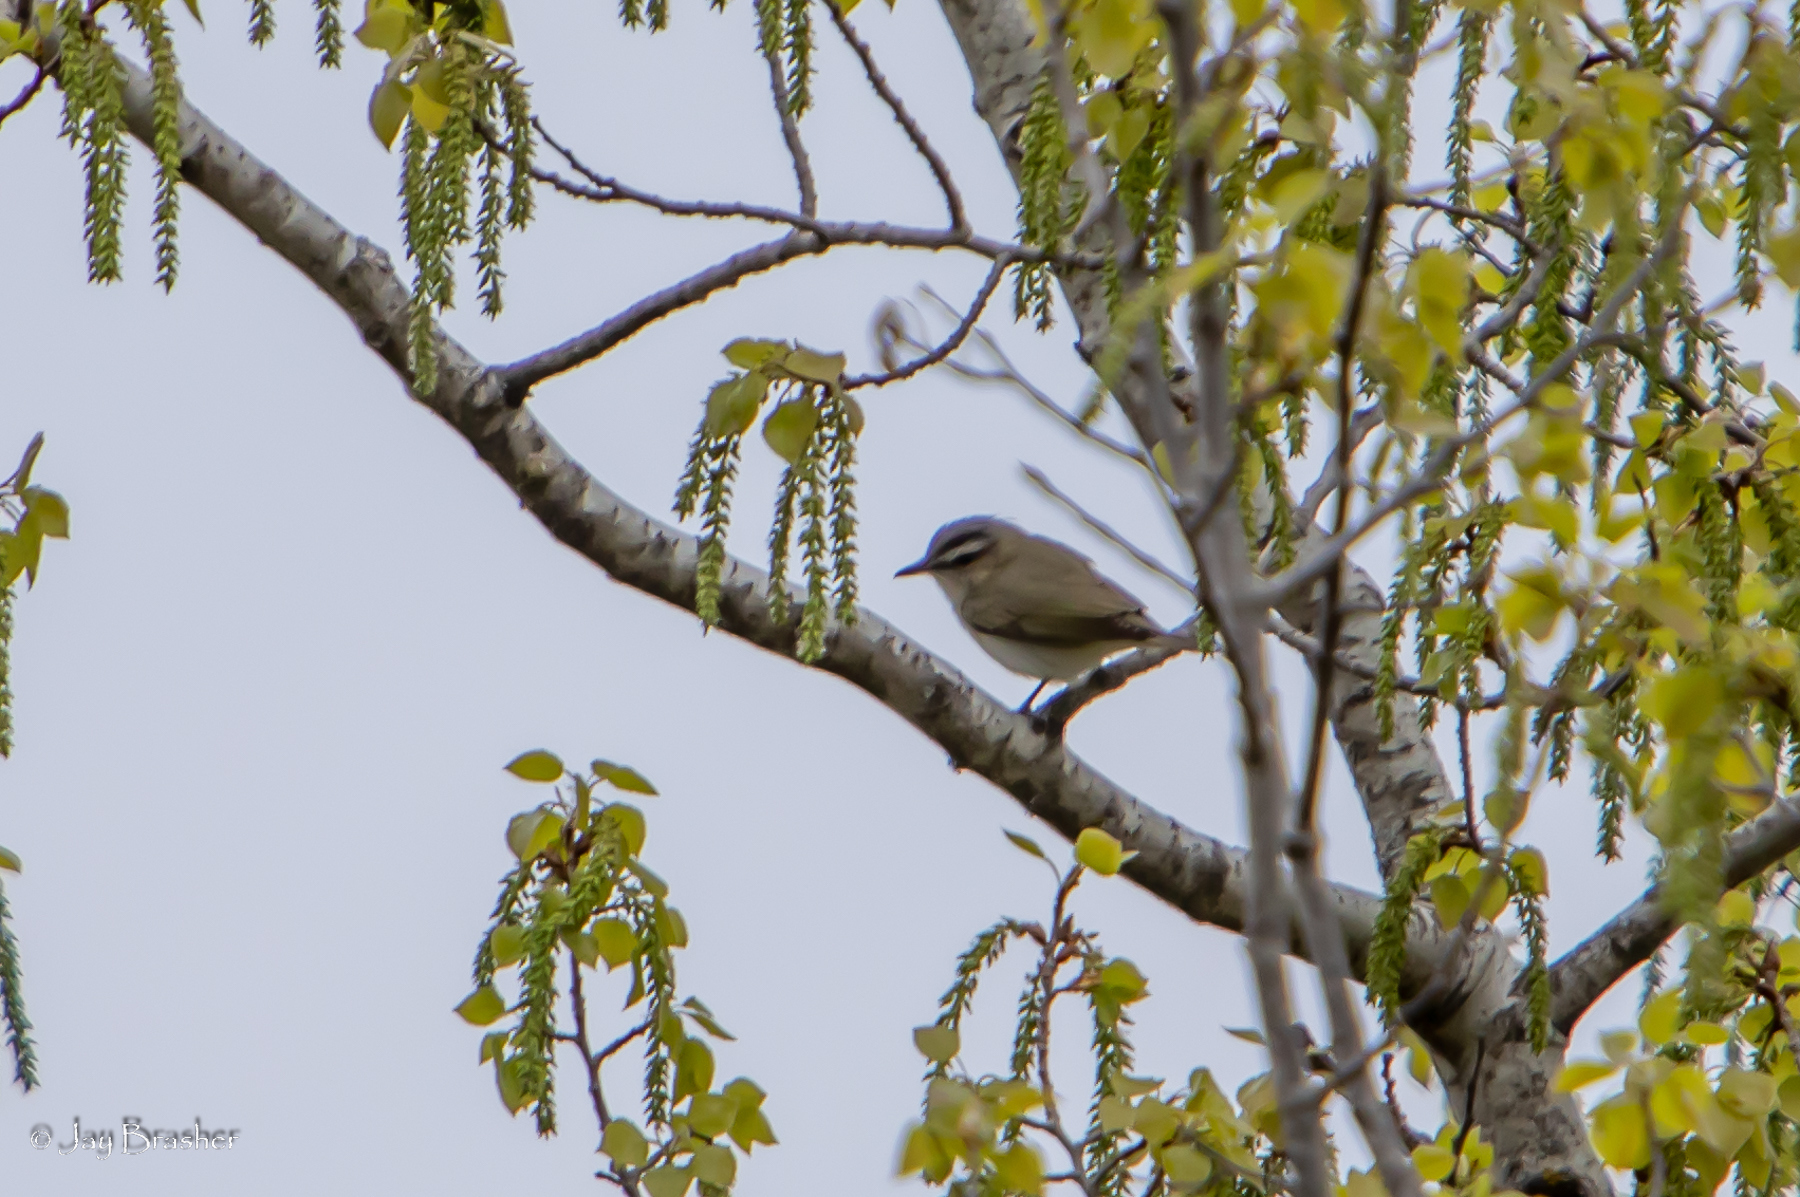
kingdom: Animalia
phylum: Chordata
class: Aves
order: Passeriformes
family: Vireonidae
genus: Vireo
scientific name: Vireo olivaceus
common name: Red-eyed vireo
